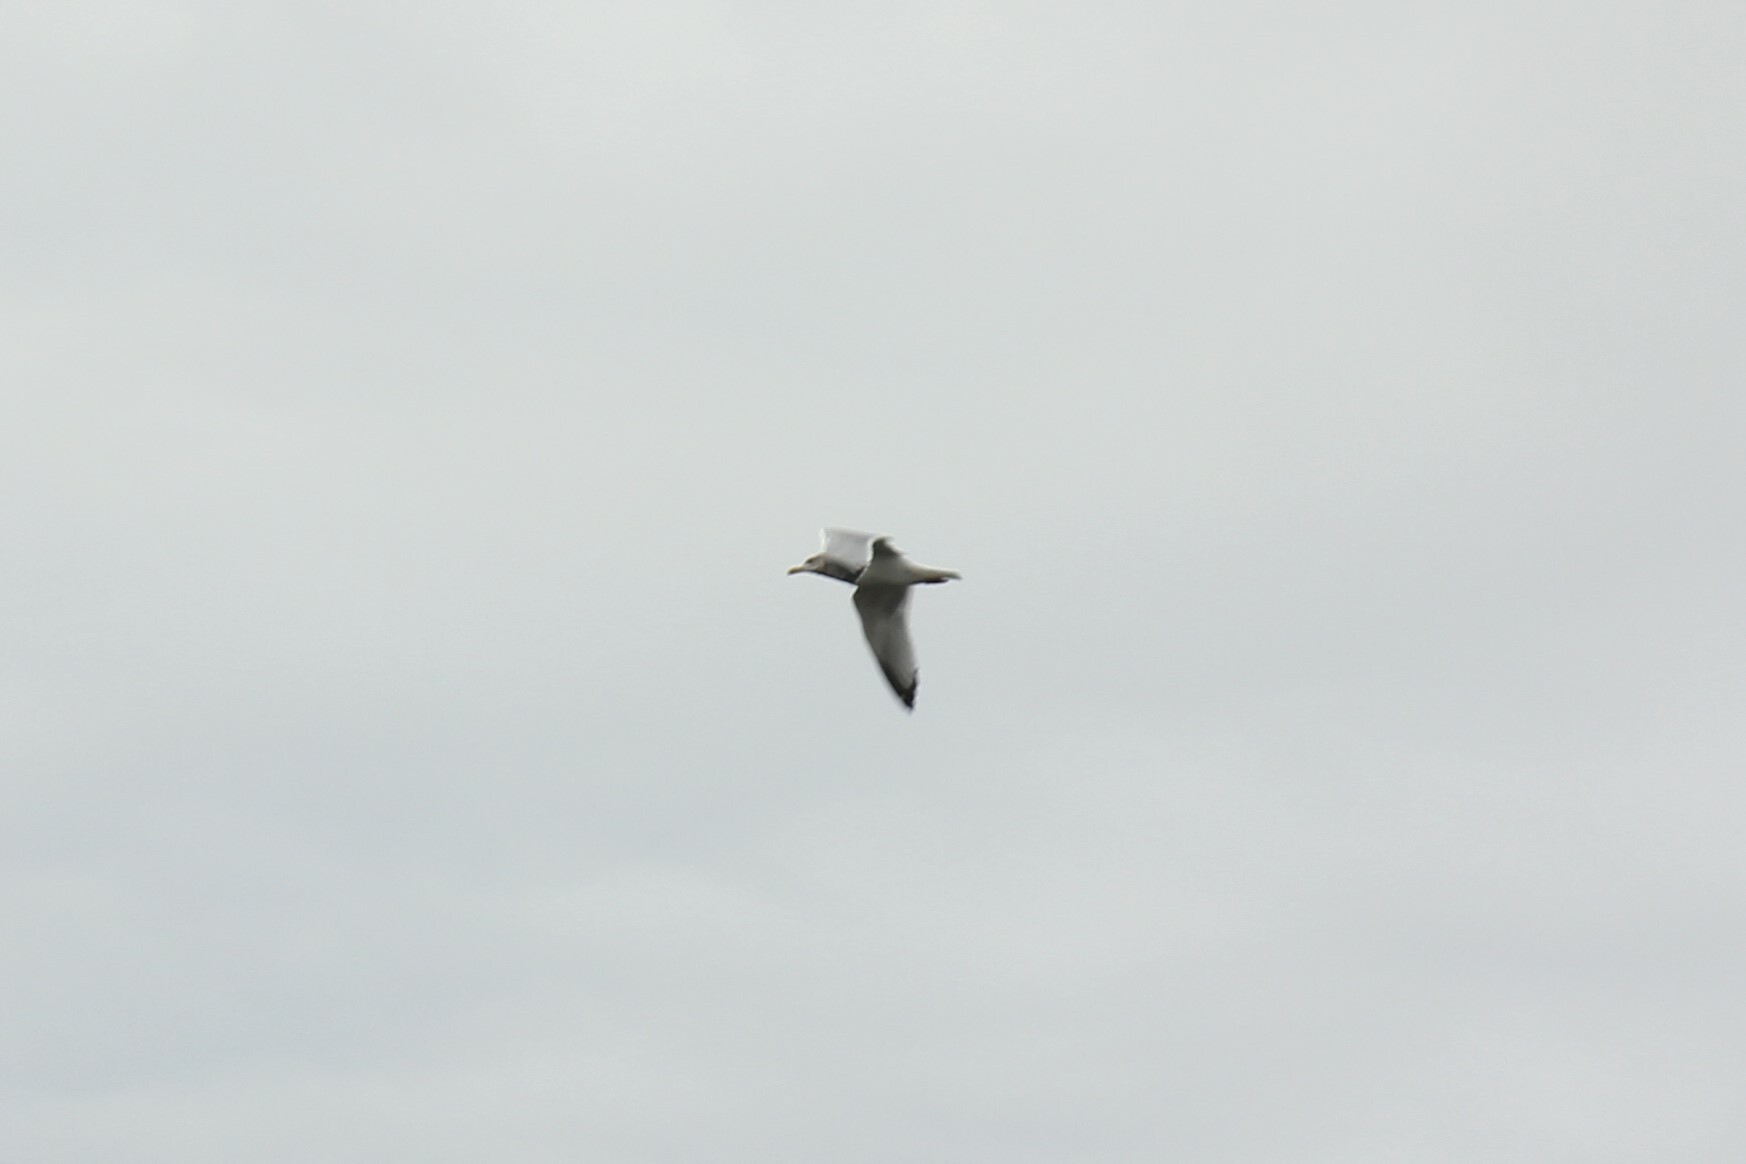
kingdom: Animalia
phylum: Chordata
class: Aves
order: Charadriiformes
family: Laridae
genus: Larus
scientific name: Larus argentatus
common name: Herring gull
